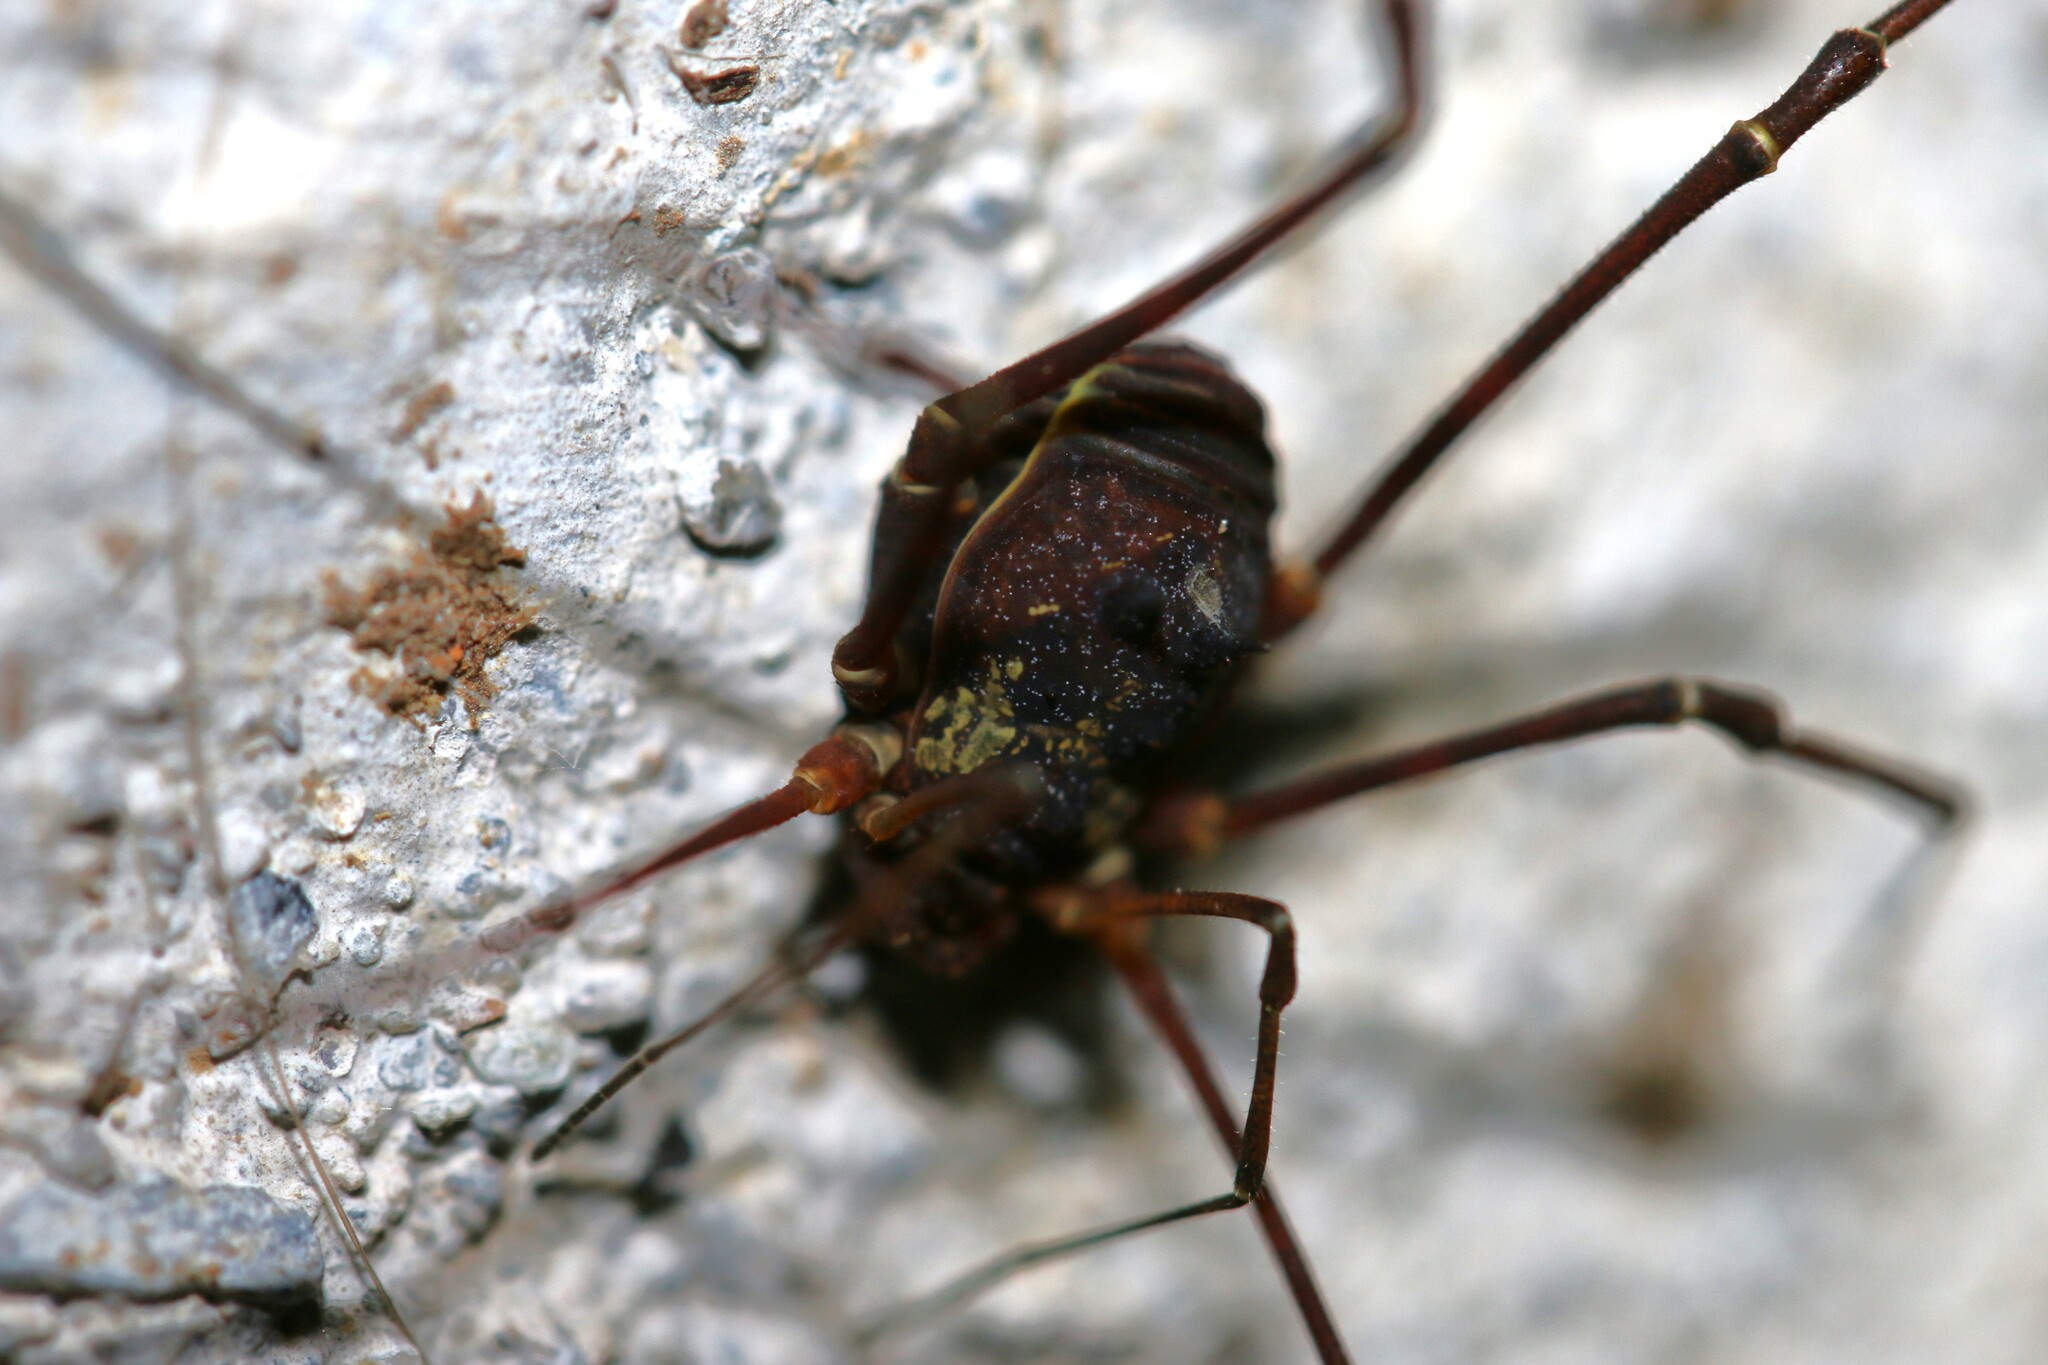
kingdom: Animalia
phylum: Arthropoda
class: Arachnida
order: Opiliones
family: Cosmetidae
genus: Rhaucoides
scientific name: Rhaucoides atahualpa
